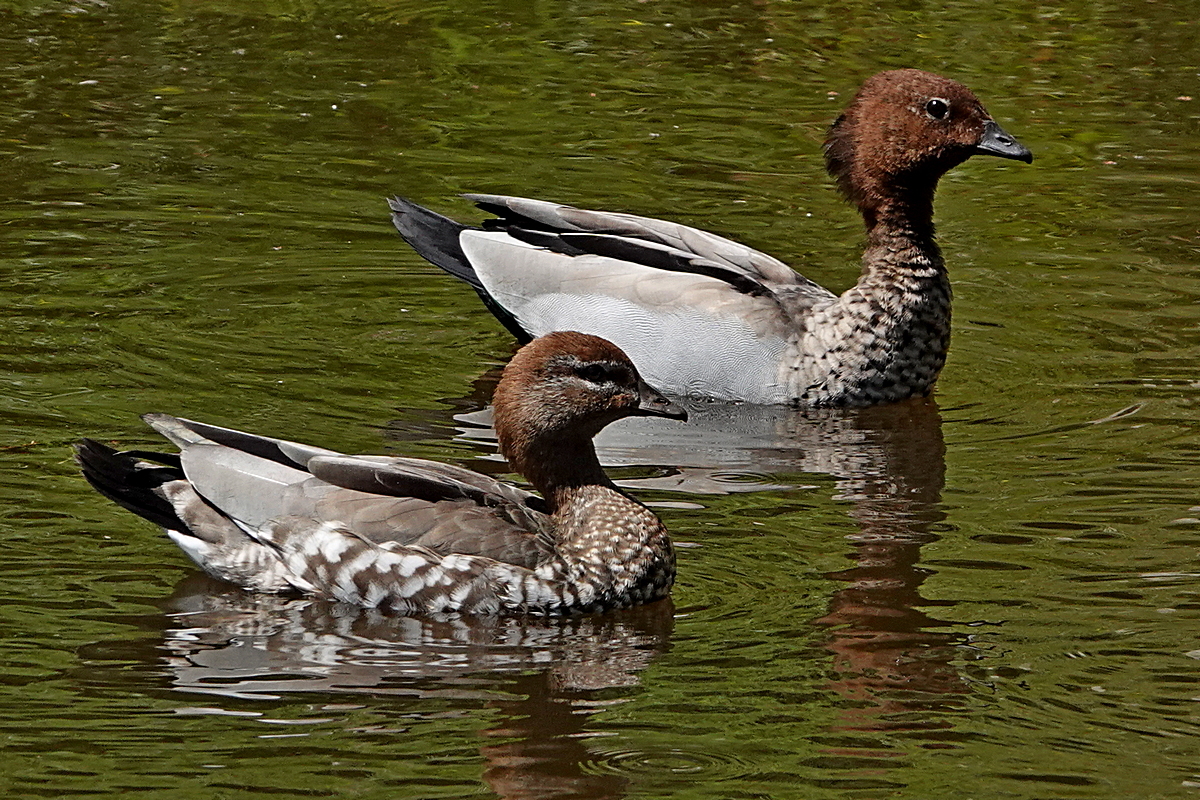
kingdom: Animalia
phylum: Chordata
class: Aves
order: Anseriformes
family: Anatidae
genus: Chenonetta
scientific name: Chenonetta jubata
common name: Maned duck
